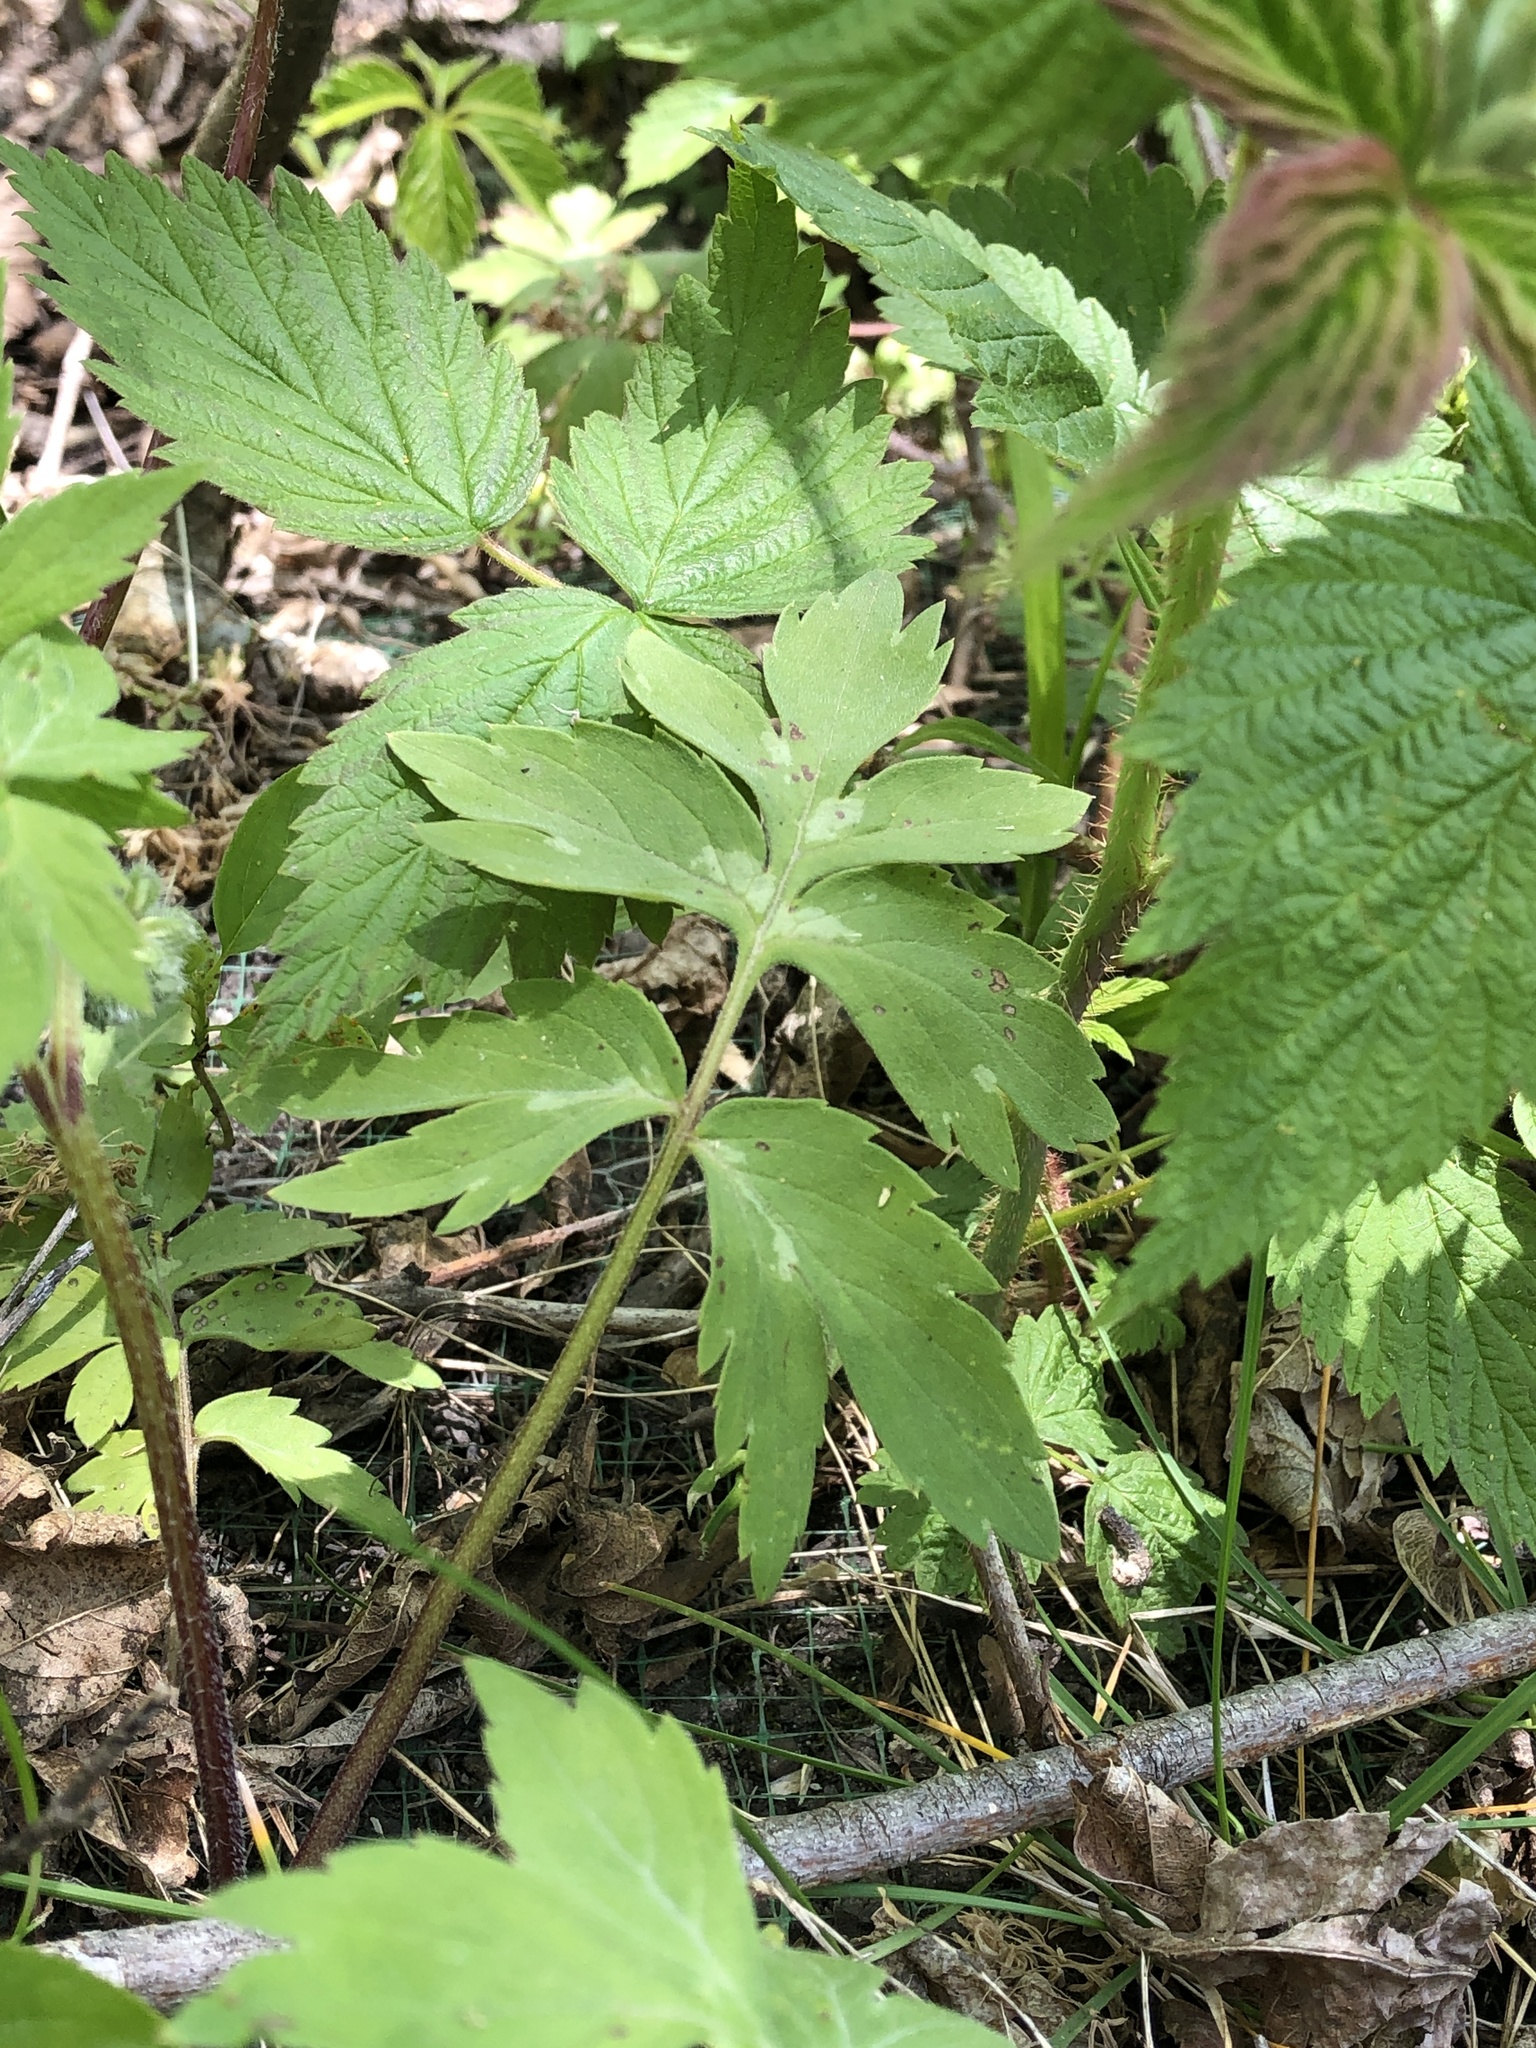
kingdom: Plantae
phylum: Tracheophyta
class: Magnoliopsida
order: Boraginales
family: Hydrophyllaceae
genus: Hydrophyllum
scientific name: Hydrophyllum virginianum
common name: Virginia waterleaf
